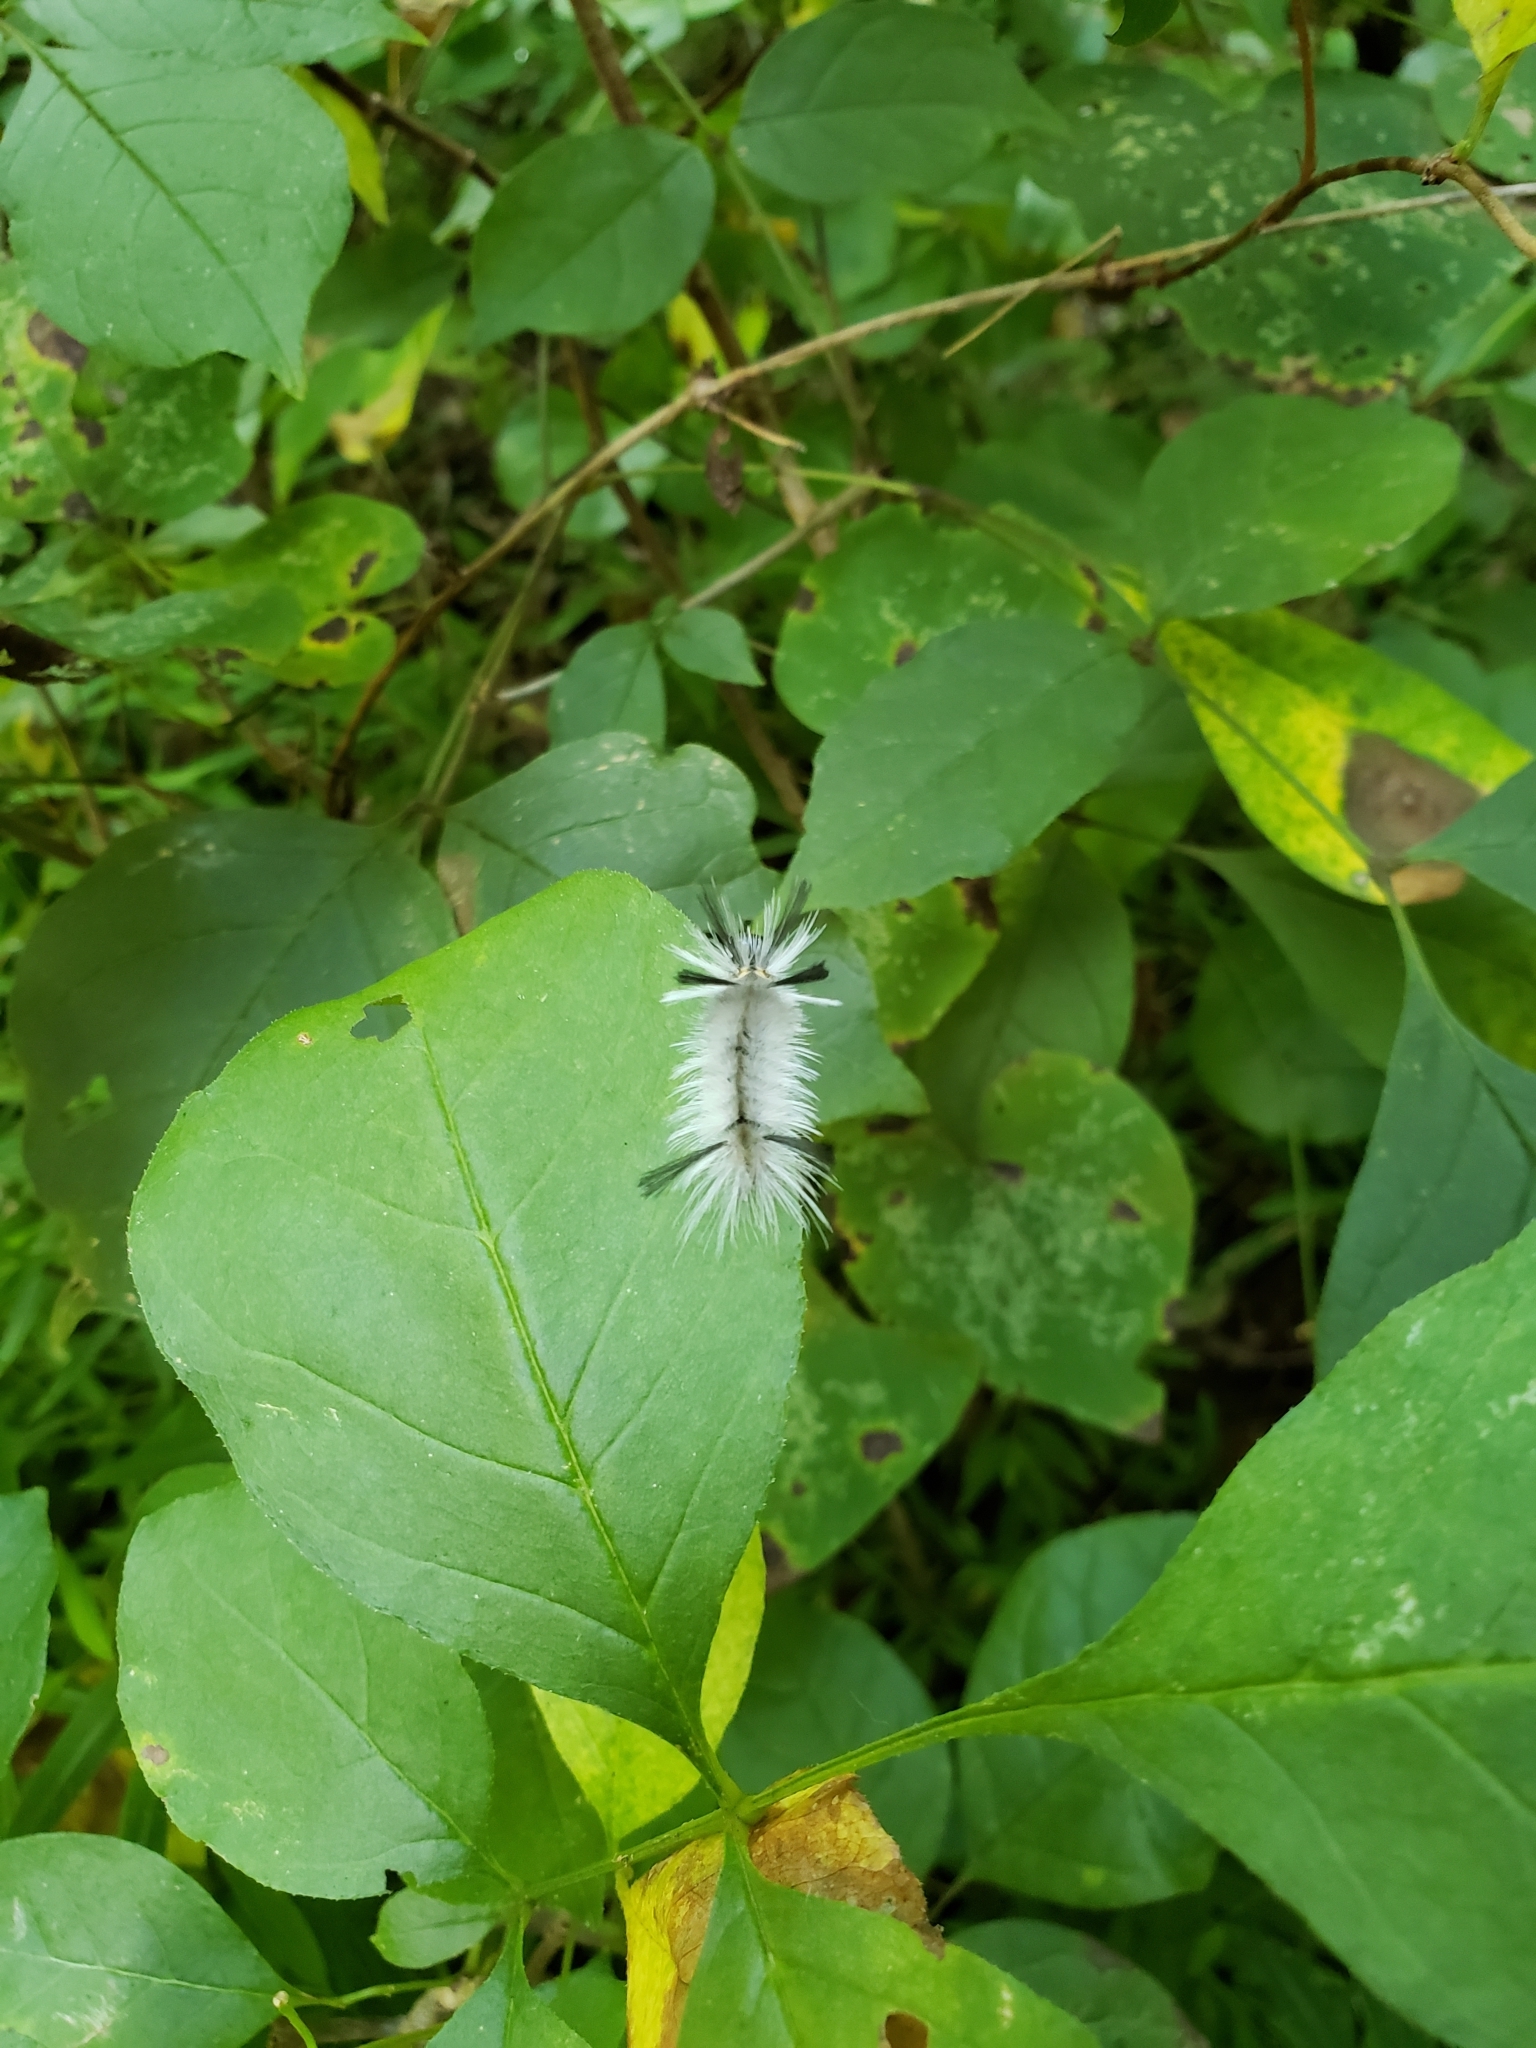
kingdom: Animalia
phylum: Arthropoda
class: Insecta
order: Lepidoptera
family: Erebidae
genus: Halysidota
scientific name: Halysidota tessellaris
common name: Banded tussock moth
